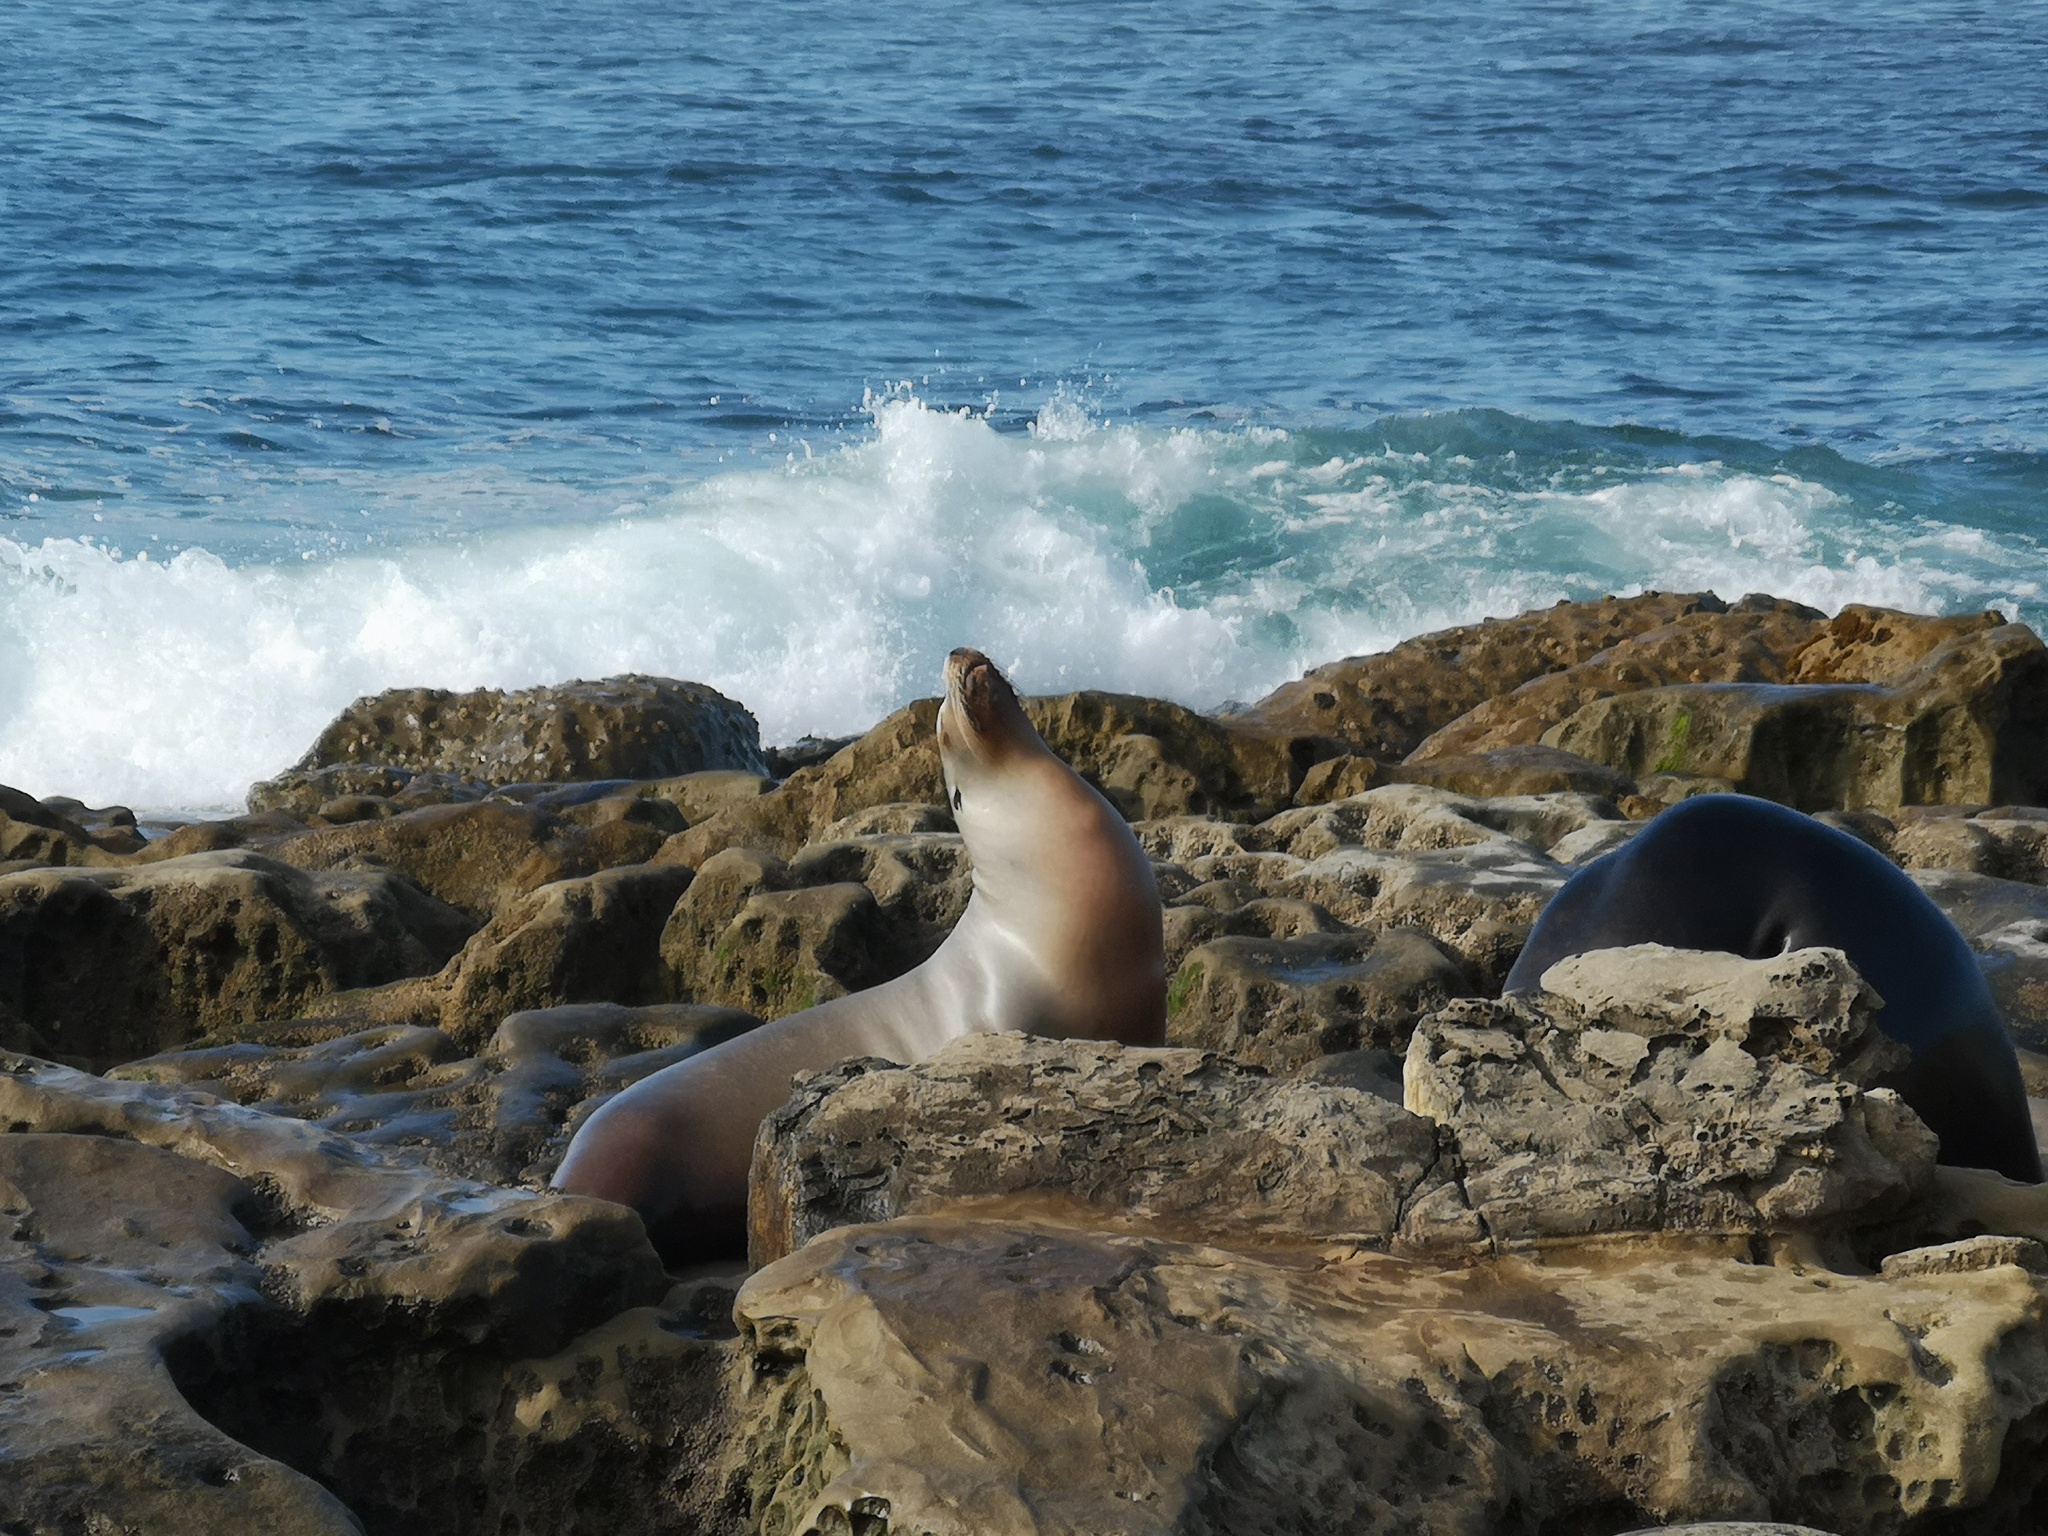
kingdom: Animalia
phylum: Chordata
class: Mammalia
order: Carnivora
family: Otariidae
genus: Zalophus
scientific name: Zalophus californianus
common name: California sea lion
